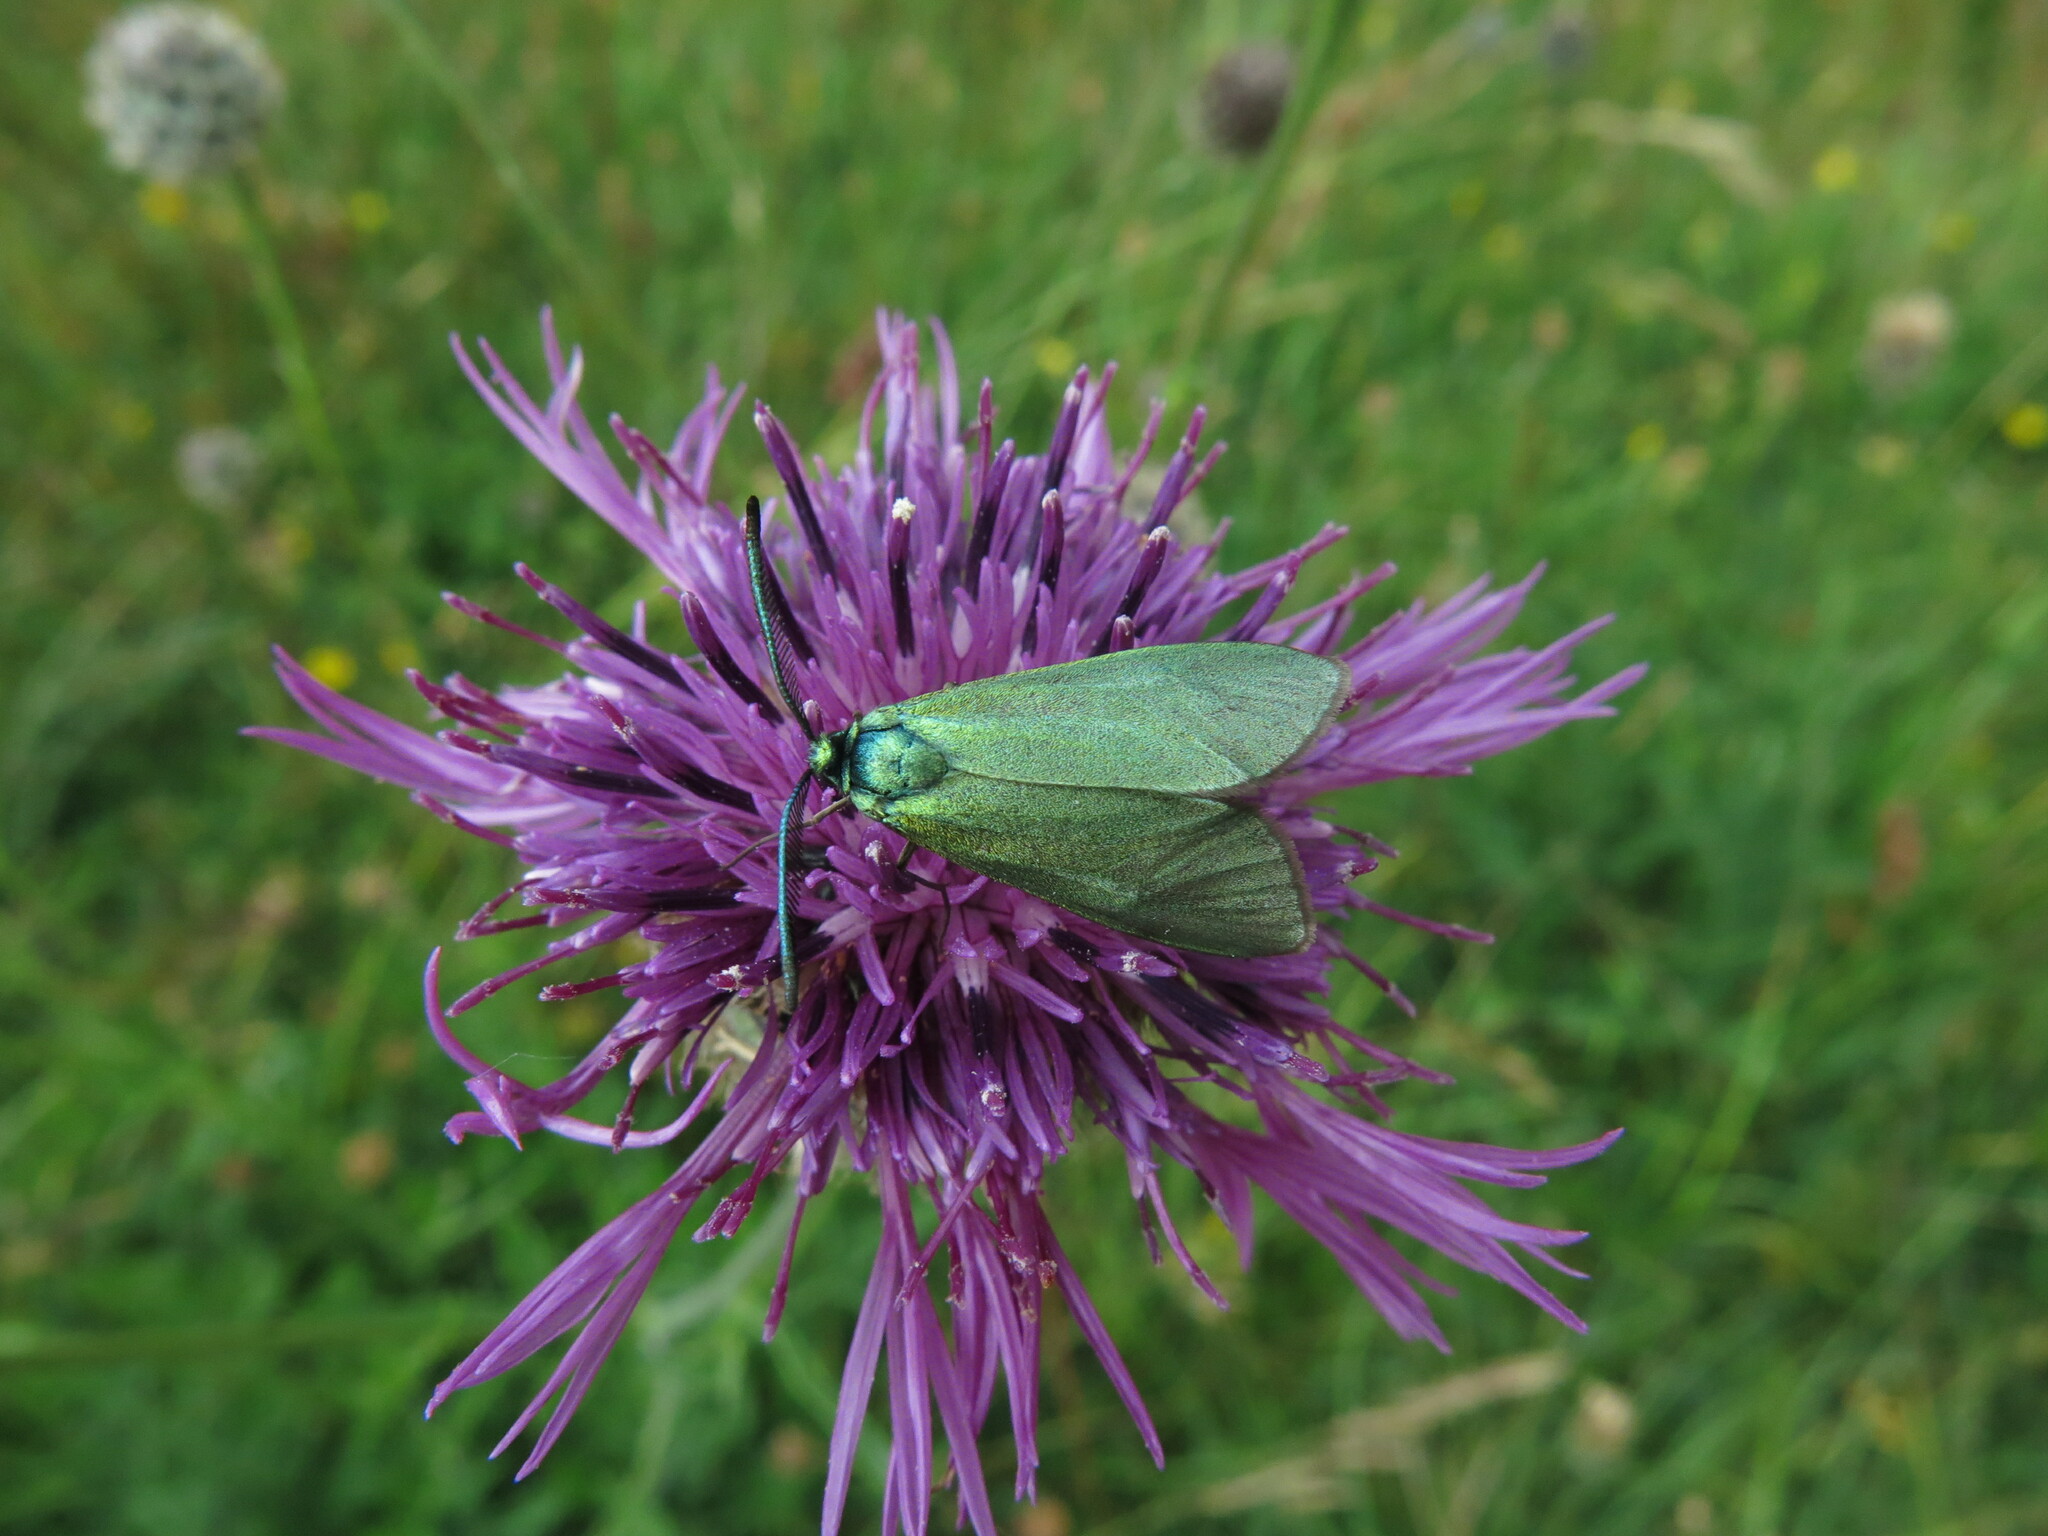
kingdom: Animalia
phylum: Arthropoda
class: Insecta
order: Lepidoptera
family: Zygaenidae
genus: Adscita
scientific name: Adscita statices
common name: Forester
